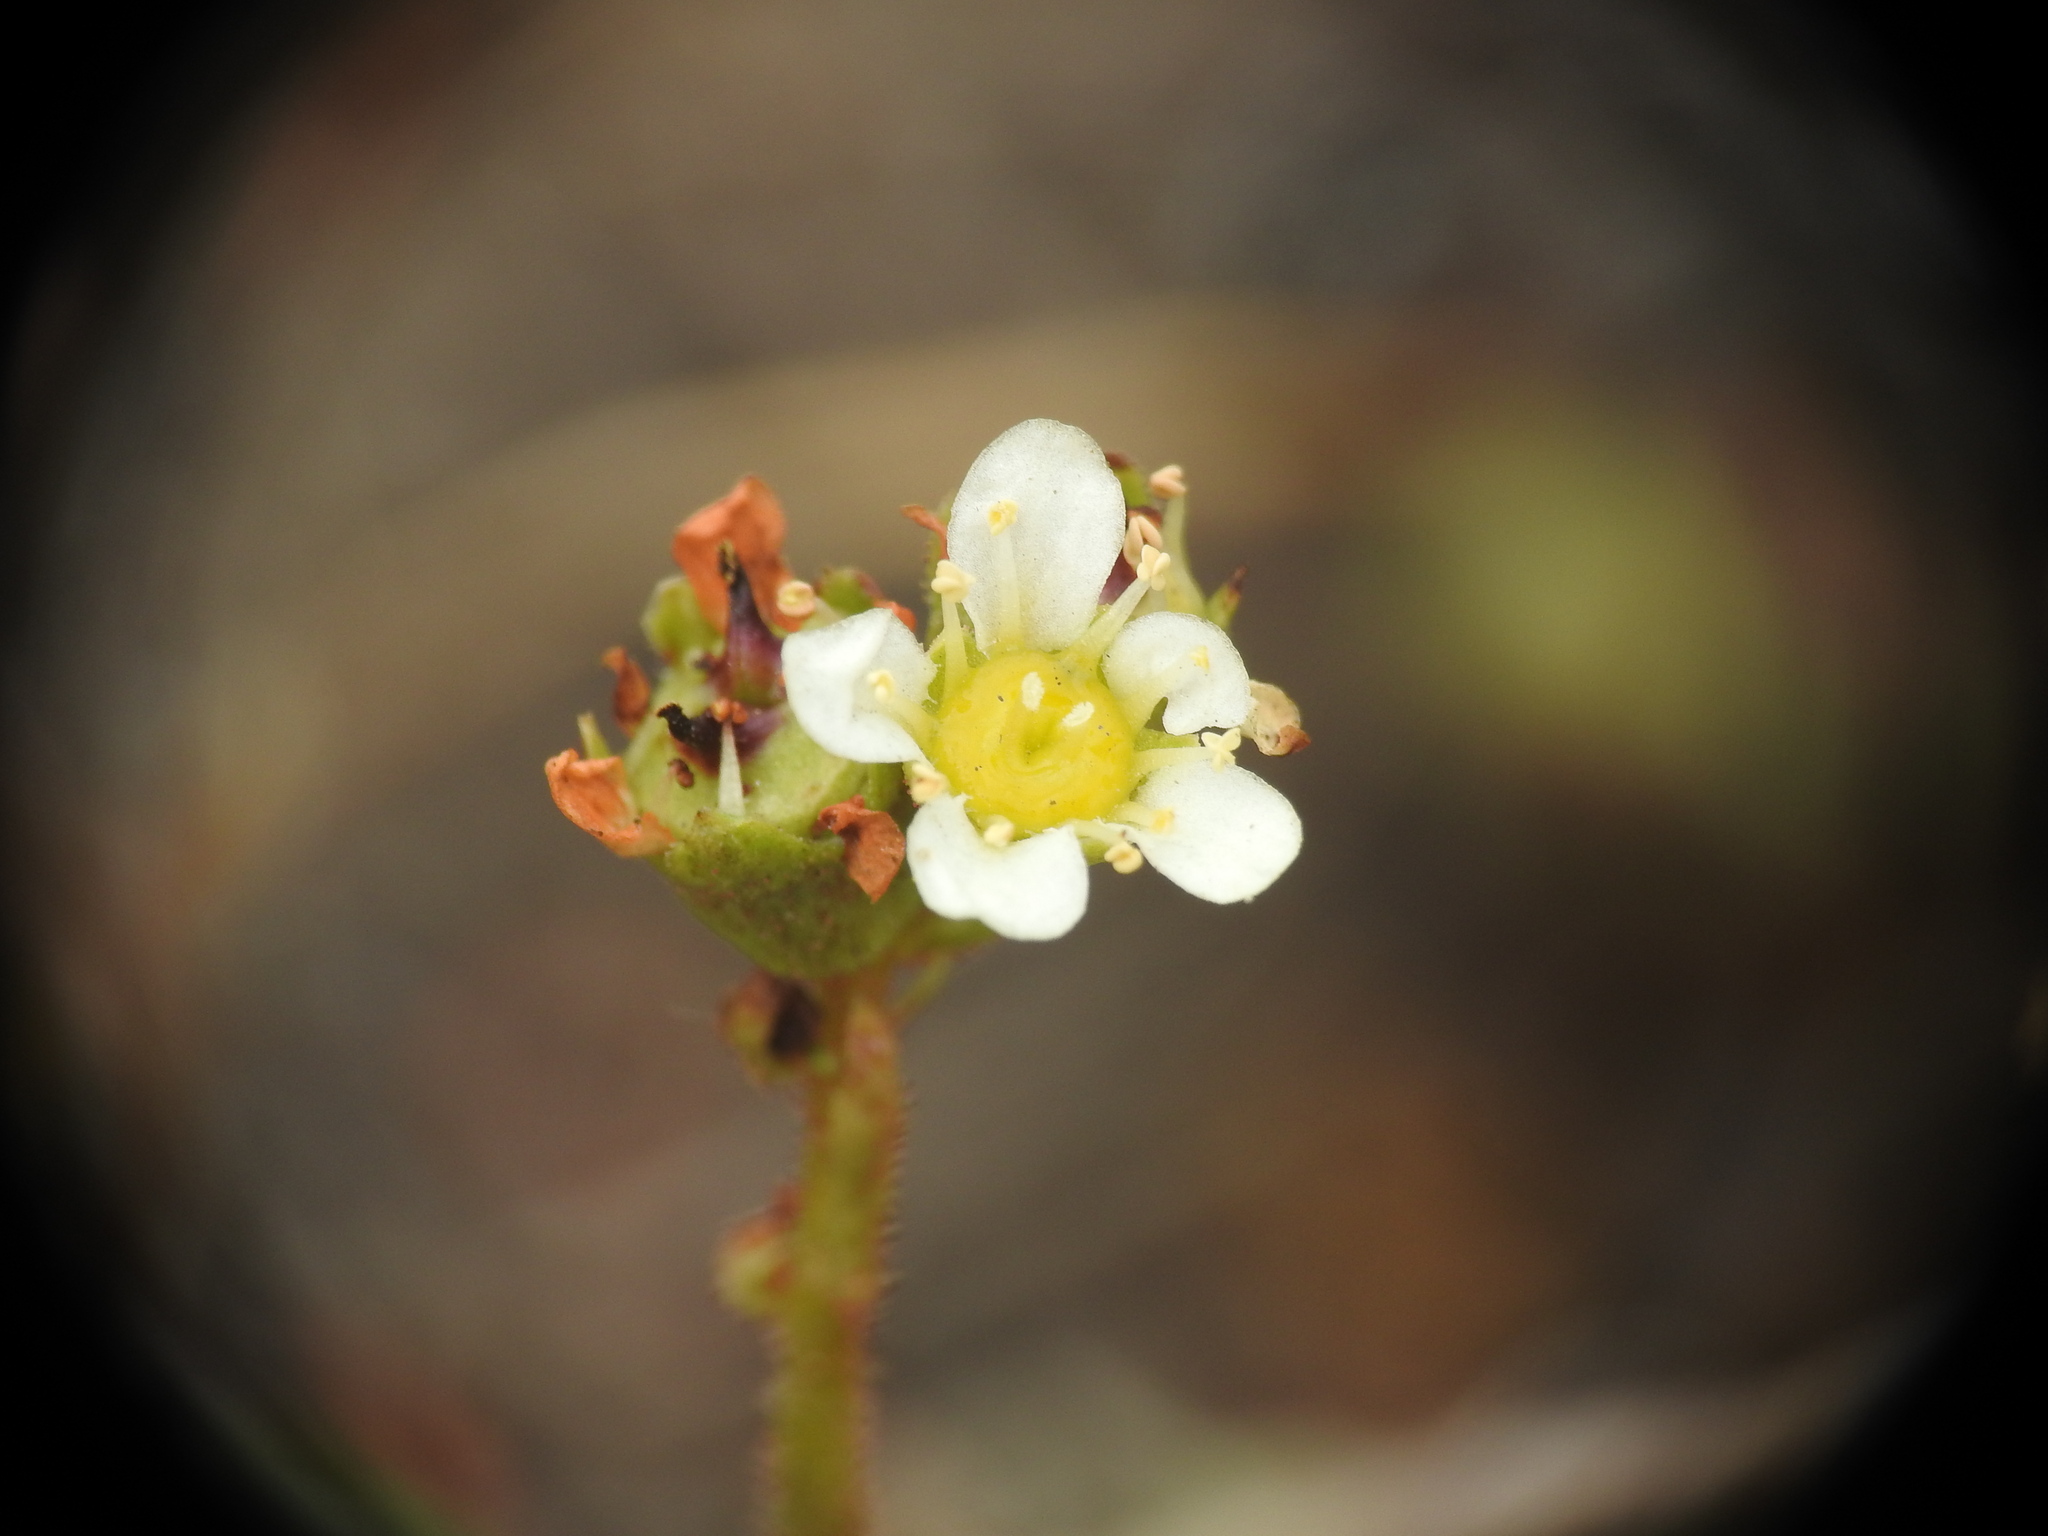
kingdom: Plantae
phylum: Tracheophyta
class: Magnoliopsida
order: Saxifragales
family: Saxifragaceae
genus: Saxifraga
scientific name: Saxifraga paniculata
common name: Livelong saxifrage
